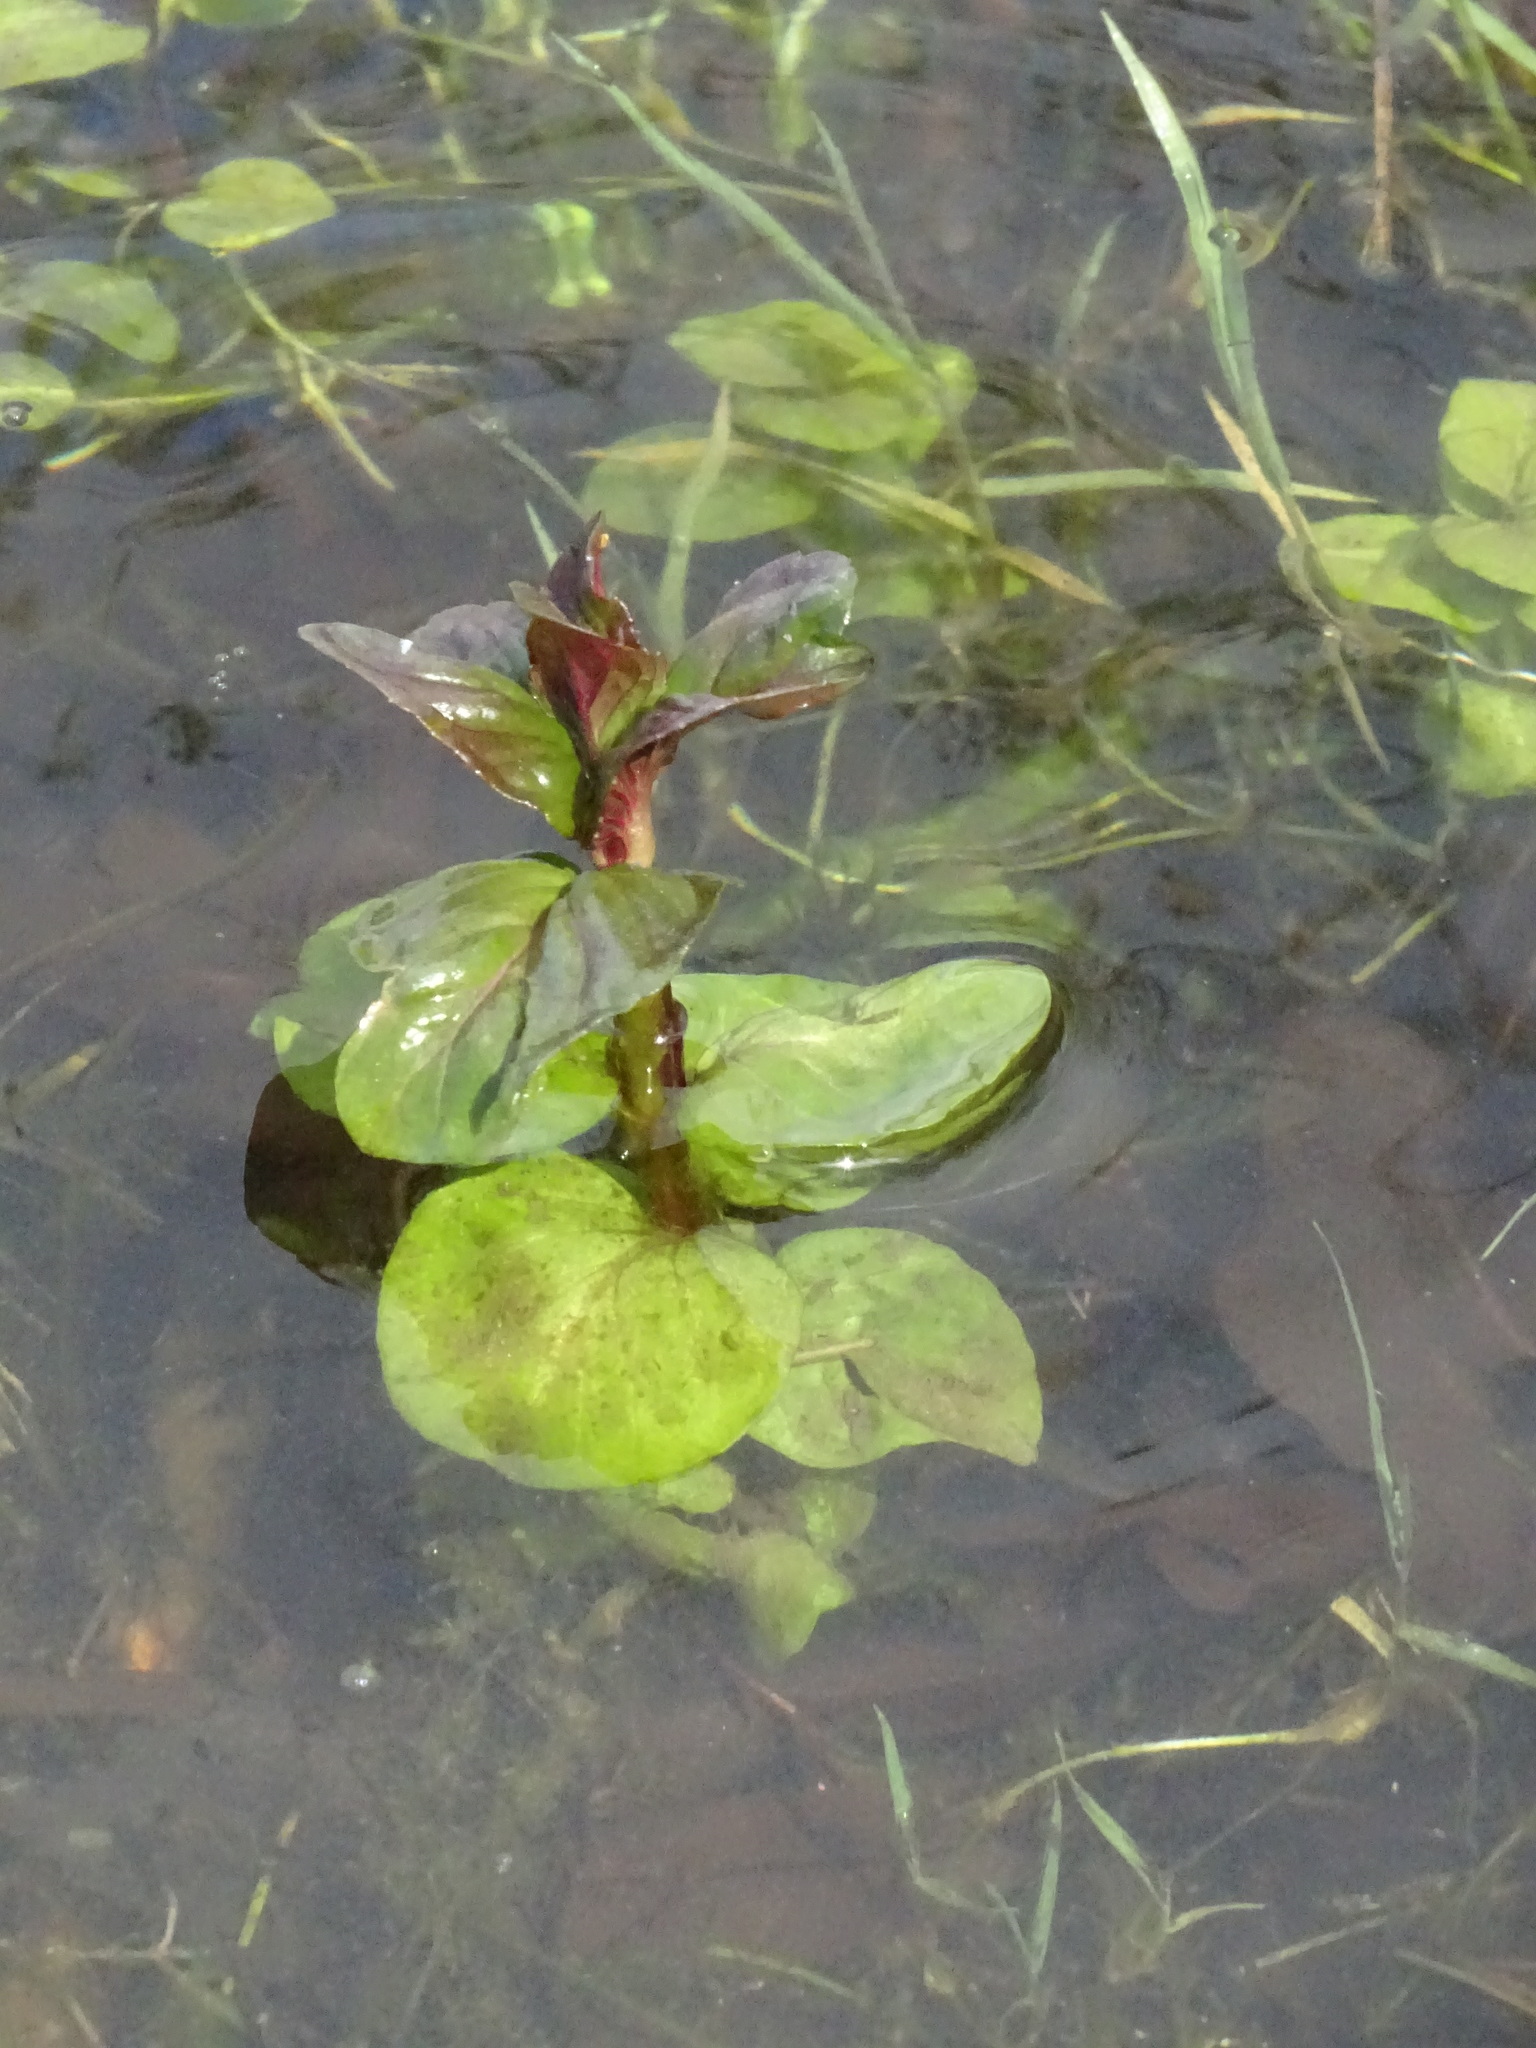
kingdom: Plantae
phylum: Tracheophyta
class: Magnoliopsida
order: Lamiales
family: Lamiaceae
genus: Mentha
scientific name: Mentha aquatica
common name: Water mint
